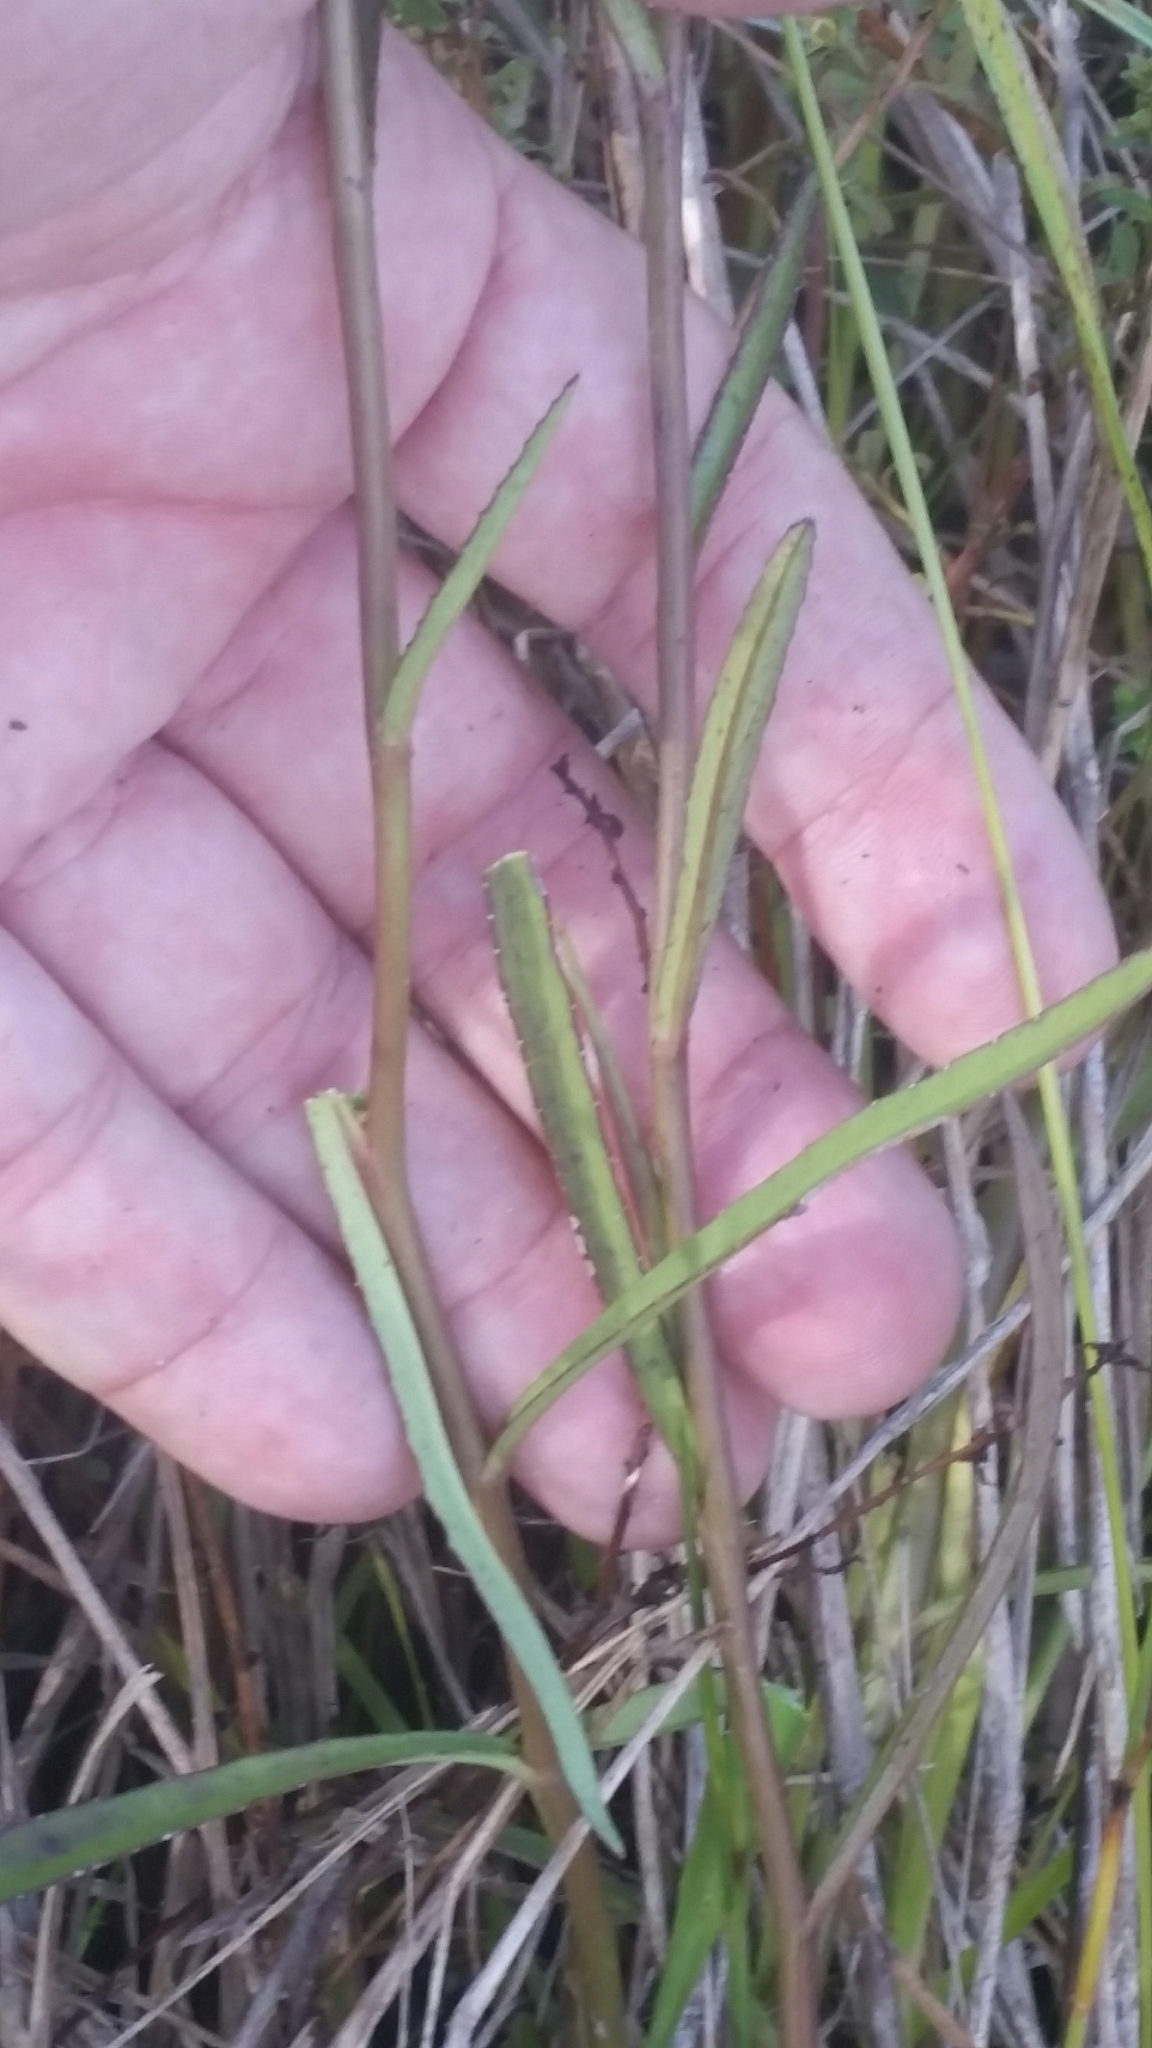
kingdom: Plantae
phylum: Tracheophyta
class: Magnoliopsida
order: Asterales
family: Campanulaceae
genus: Lobelia
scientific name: Lobelia glandulosa
